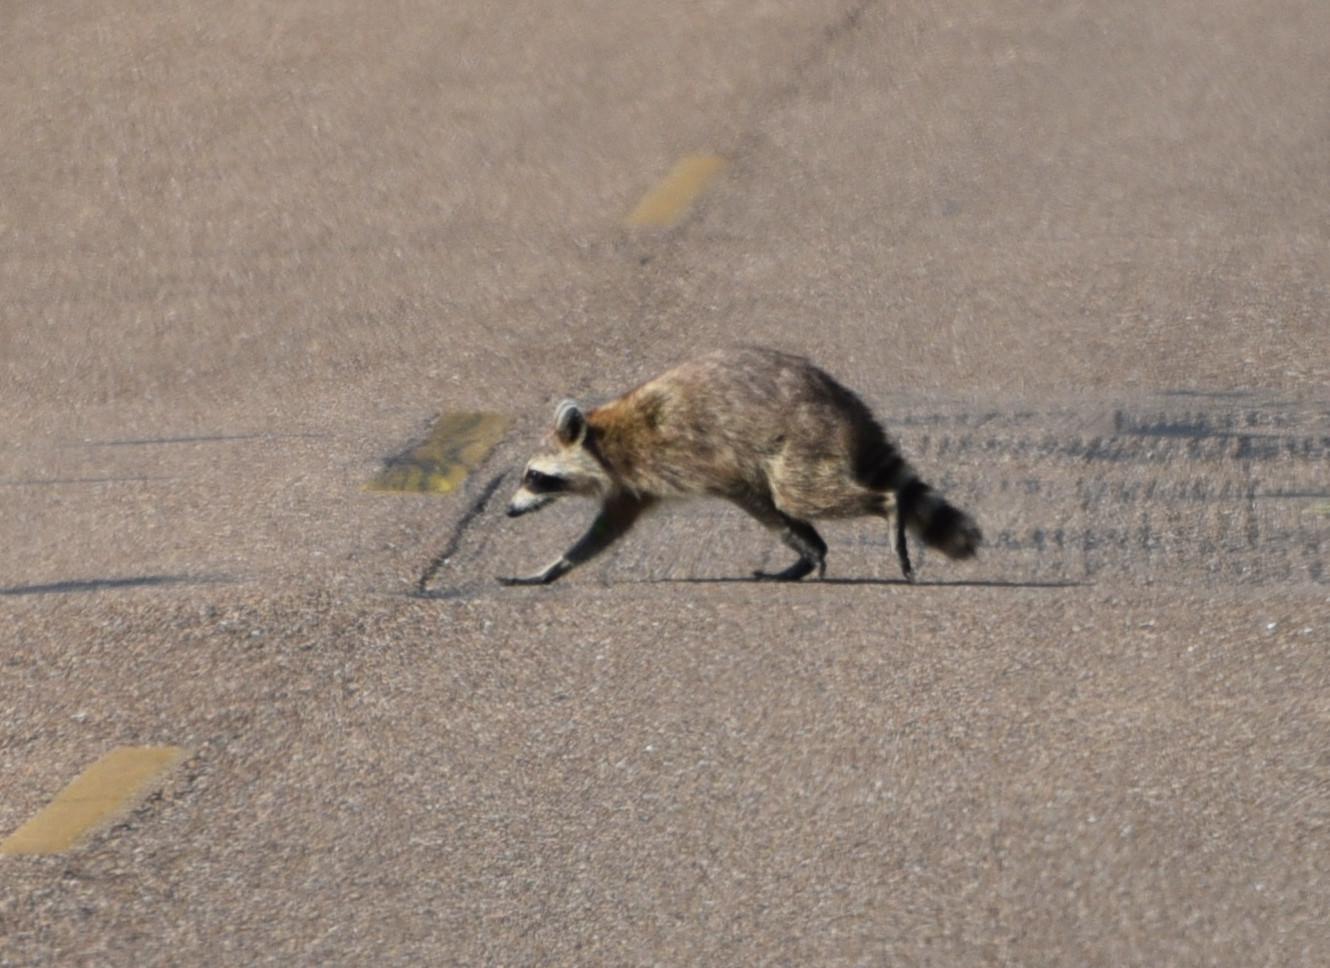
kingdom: Animalia
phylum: Chordata
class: Mammalia
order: Carnivora
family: Procyonidae
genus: Procyon
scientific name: Procyon lotor
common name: Raccoon
